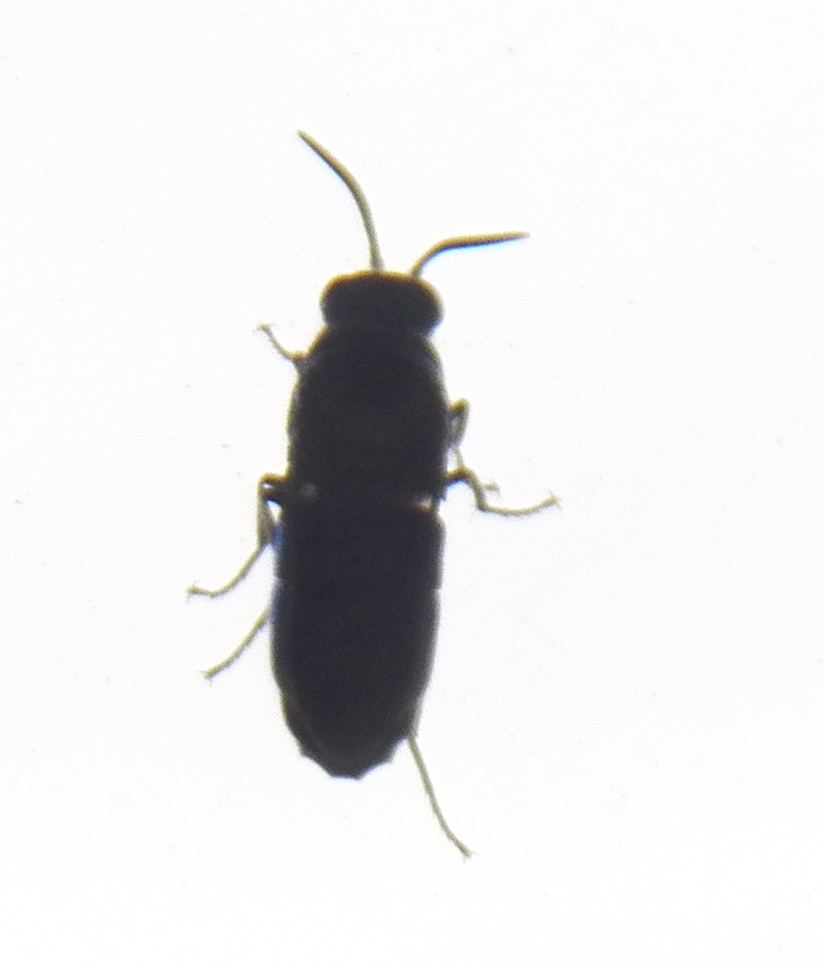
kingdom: Animalia
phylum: Arthropoda
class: Insecta
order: Hymenoptera
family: Chrysididae
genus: Chrysis
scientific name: Chrysis angolensis
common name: Cuckoo wasp
